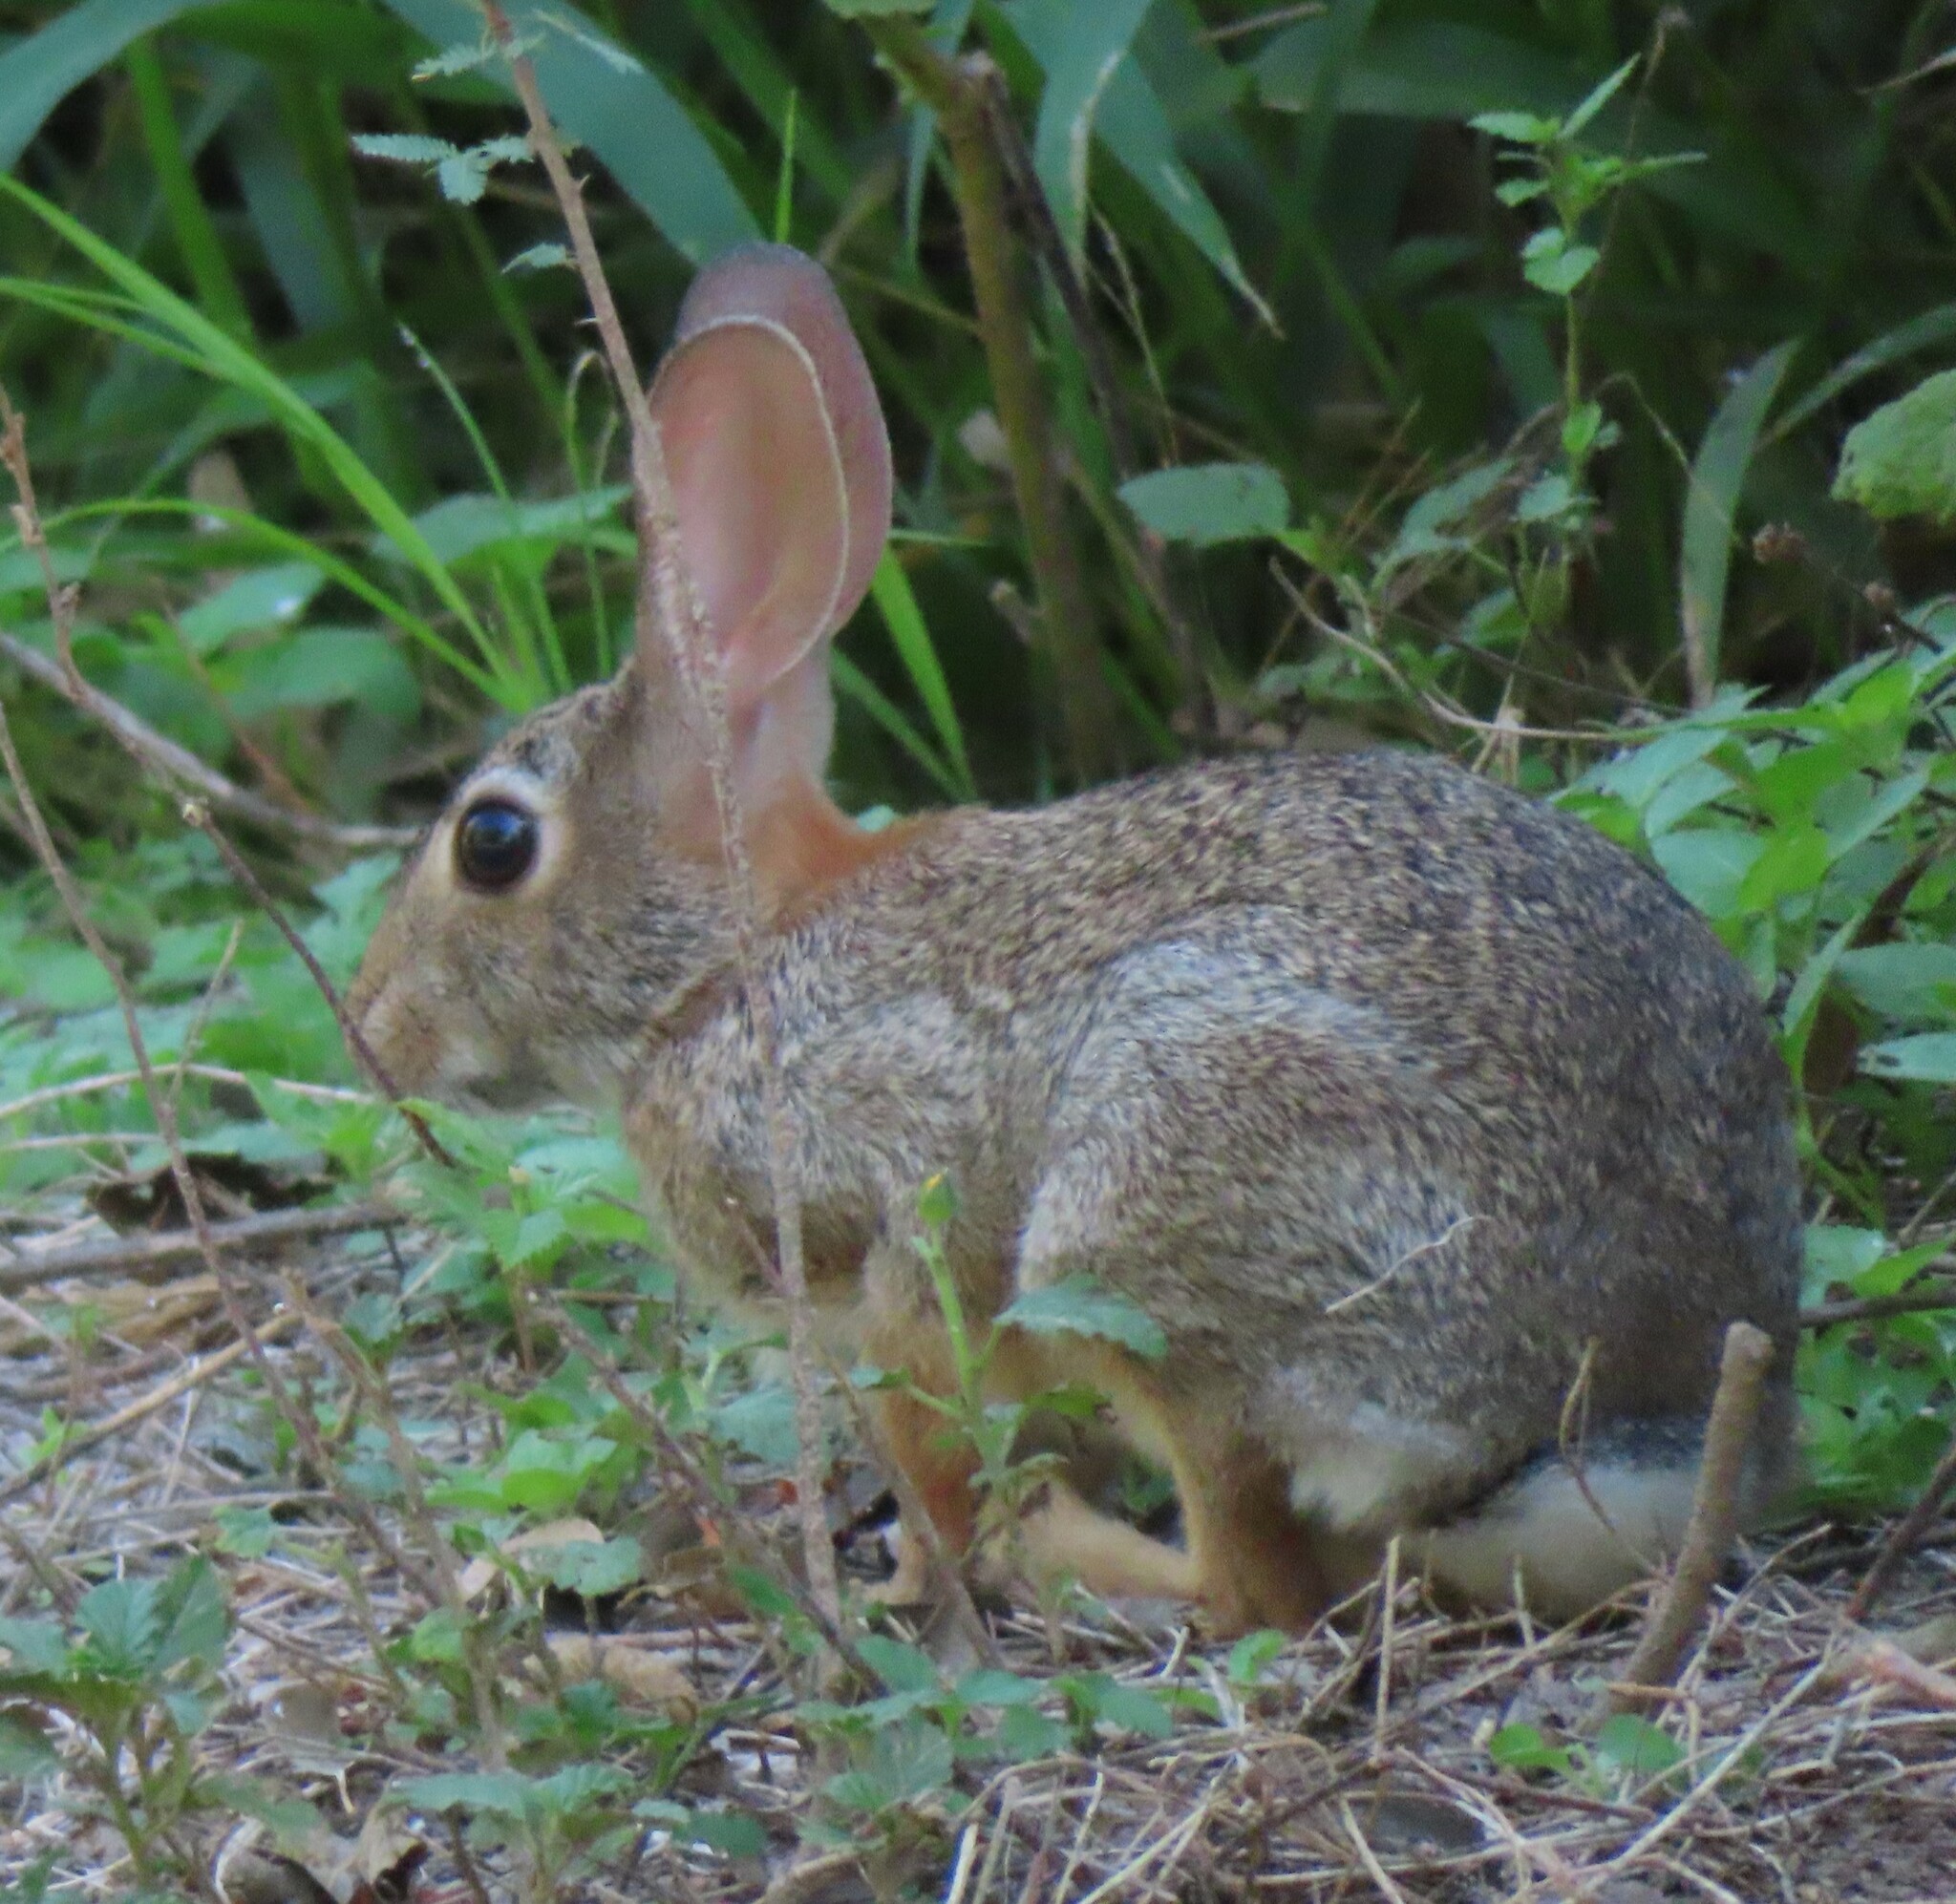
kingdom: Animalia
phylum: Chordata
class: Mammalia
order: Lagomorpha
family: Leporidae
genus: Sylvilagus
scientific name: Sylvilagus floridanus
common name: Eastern cottontail
